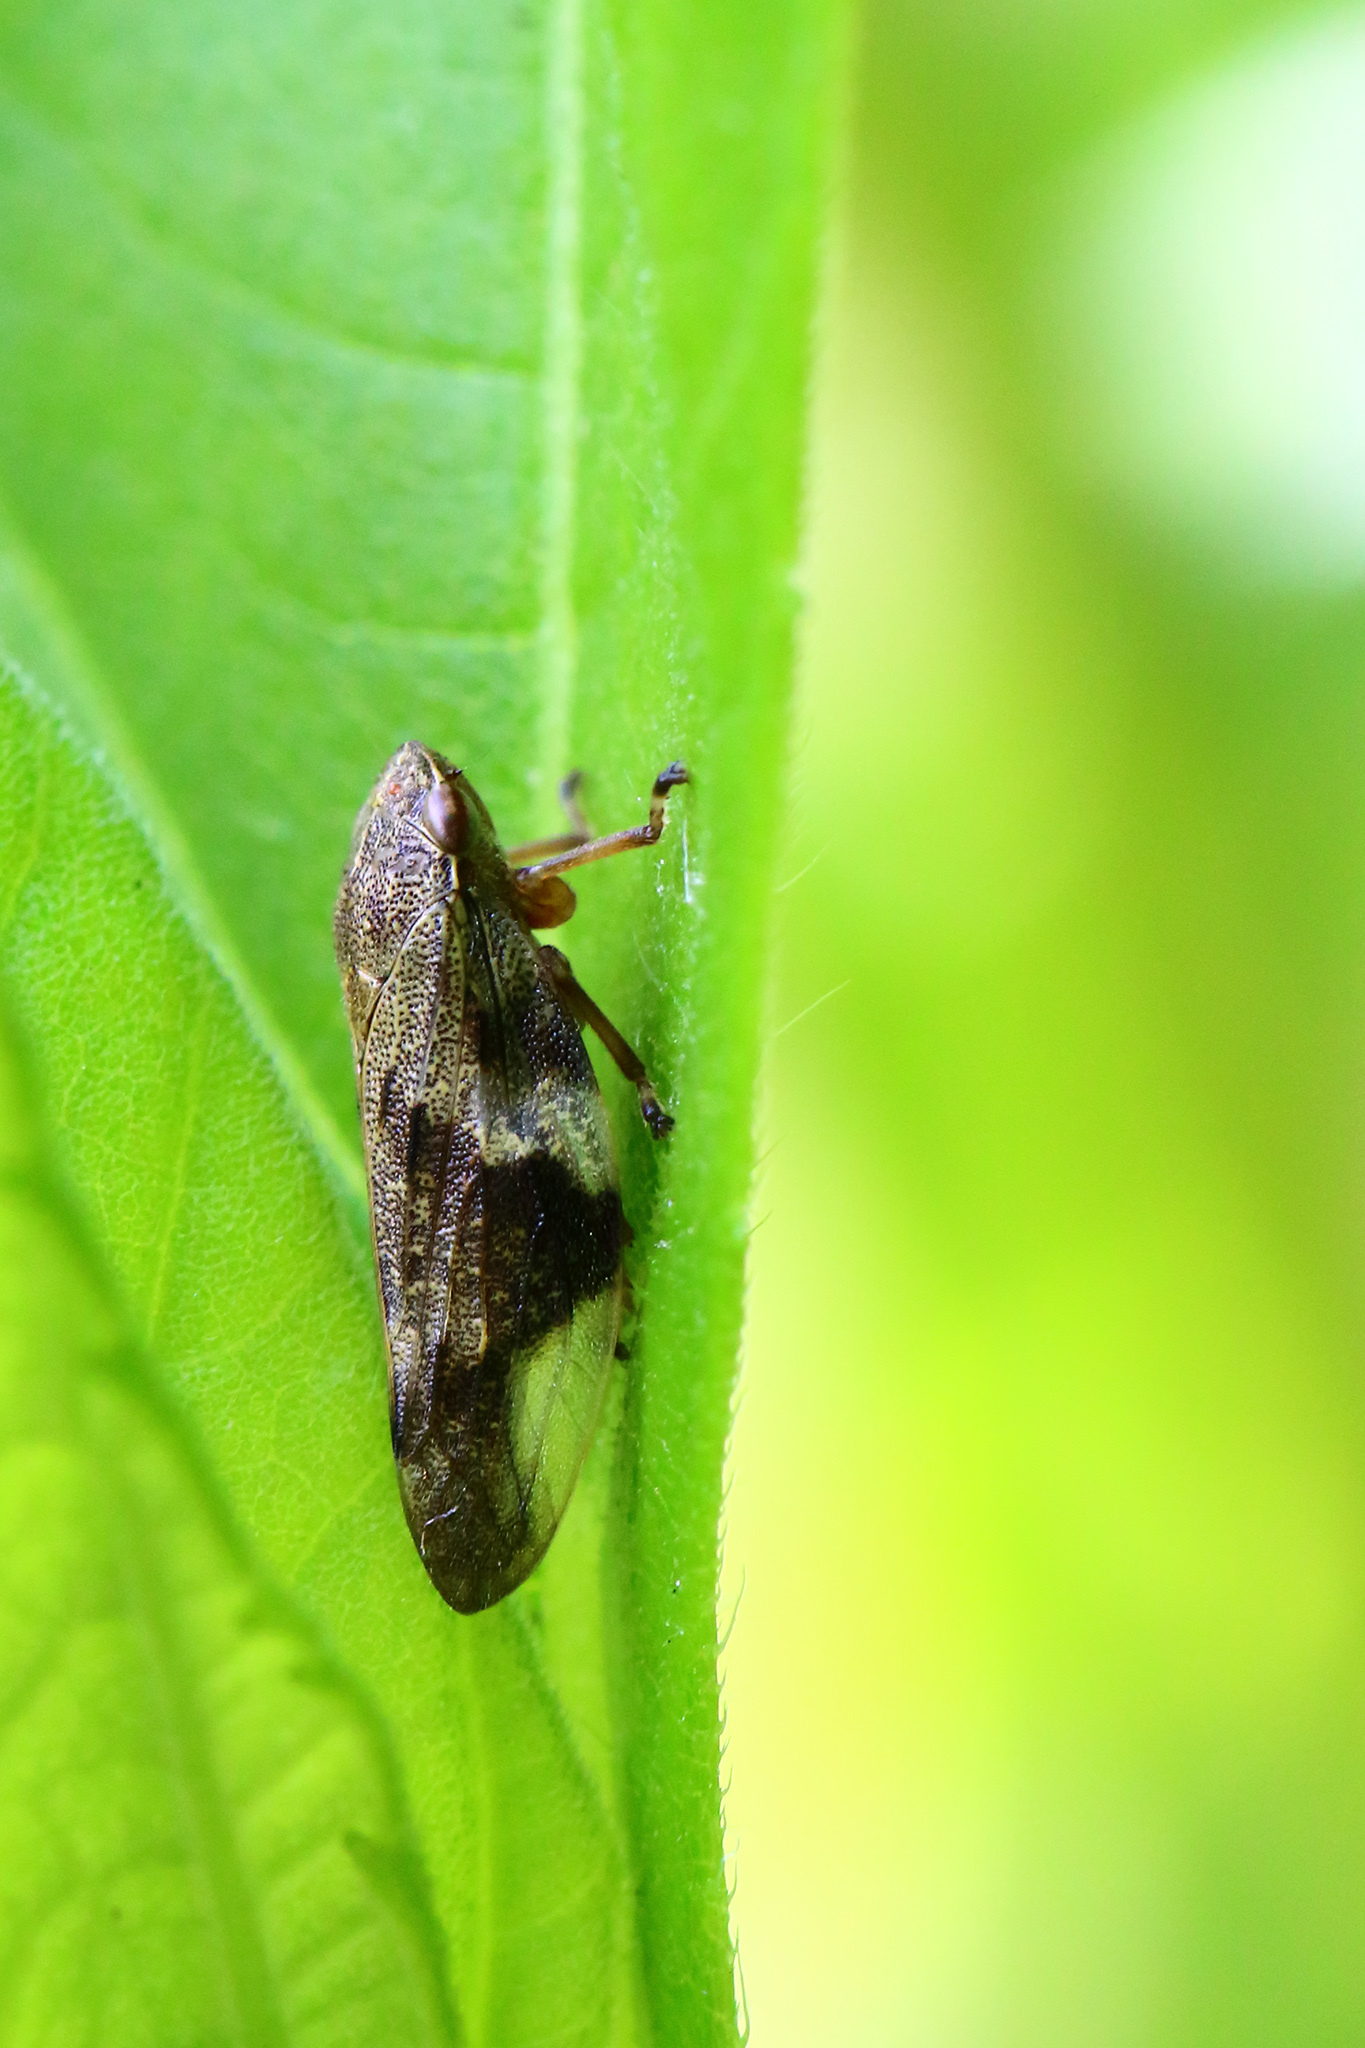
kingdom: Animalia
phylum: Arthropoda
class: Insecta
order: Hemiptera
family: Aphrophoridae
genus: Aphrophora
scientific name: Aphrophora alni
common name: European alder spittlebug
